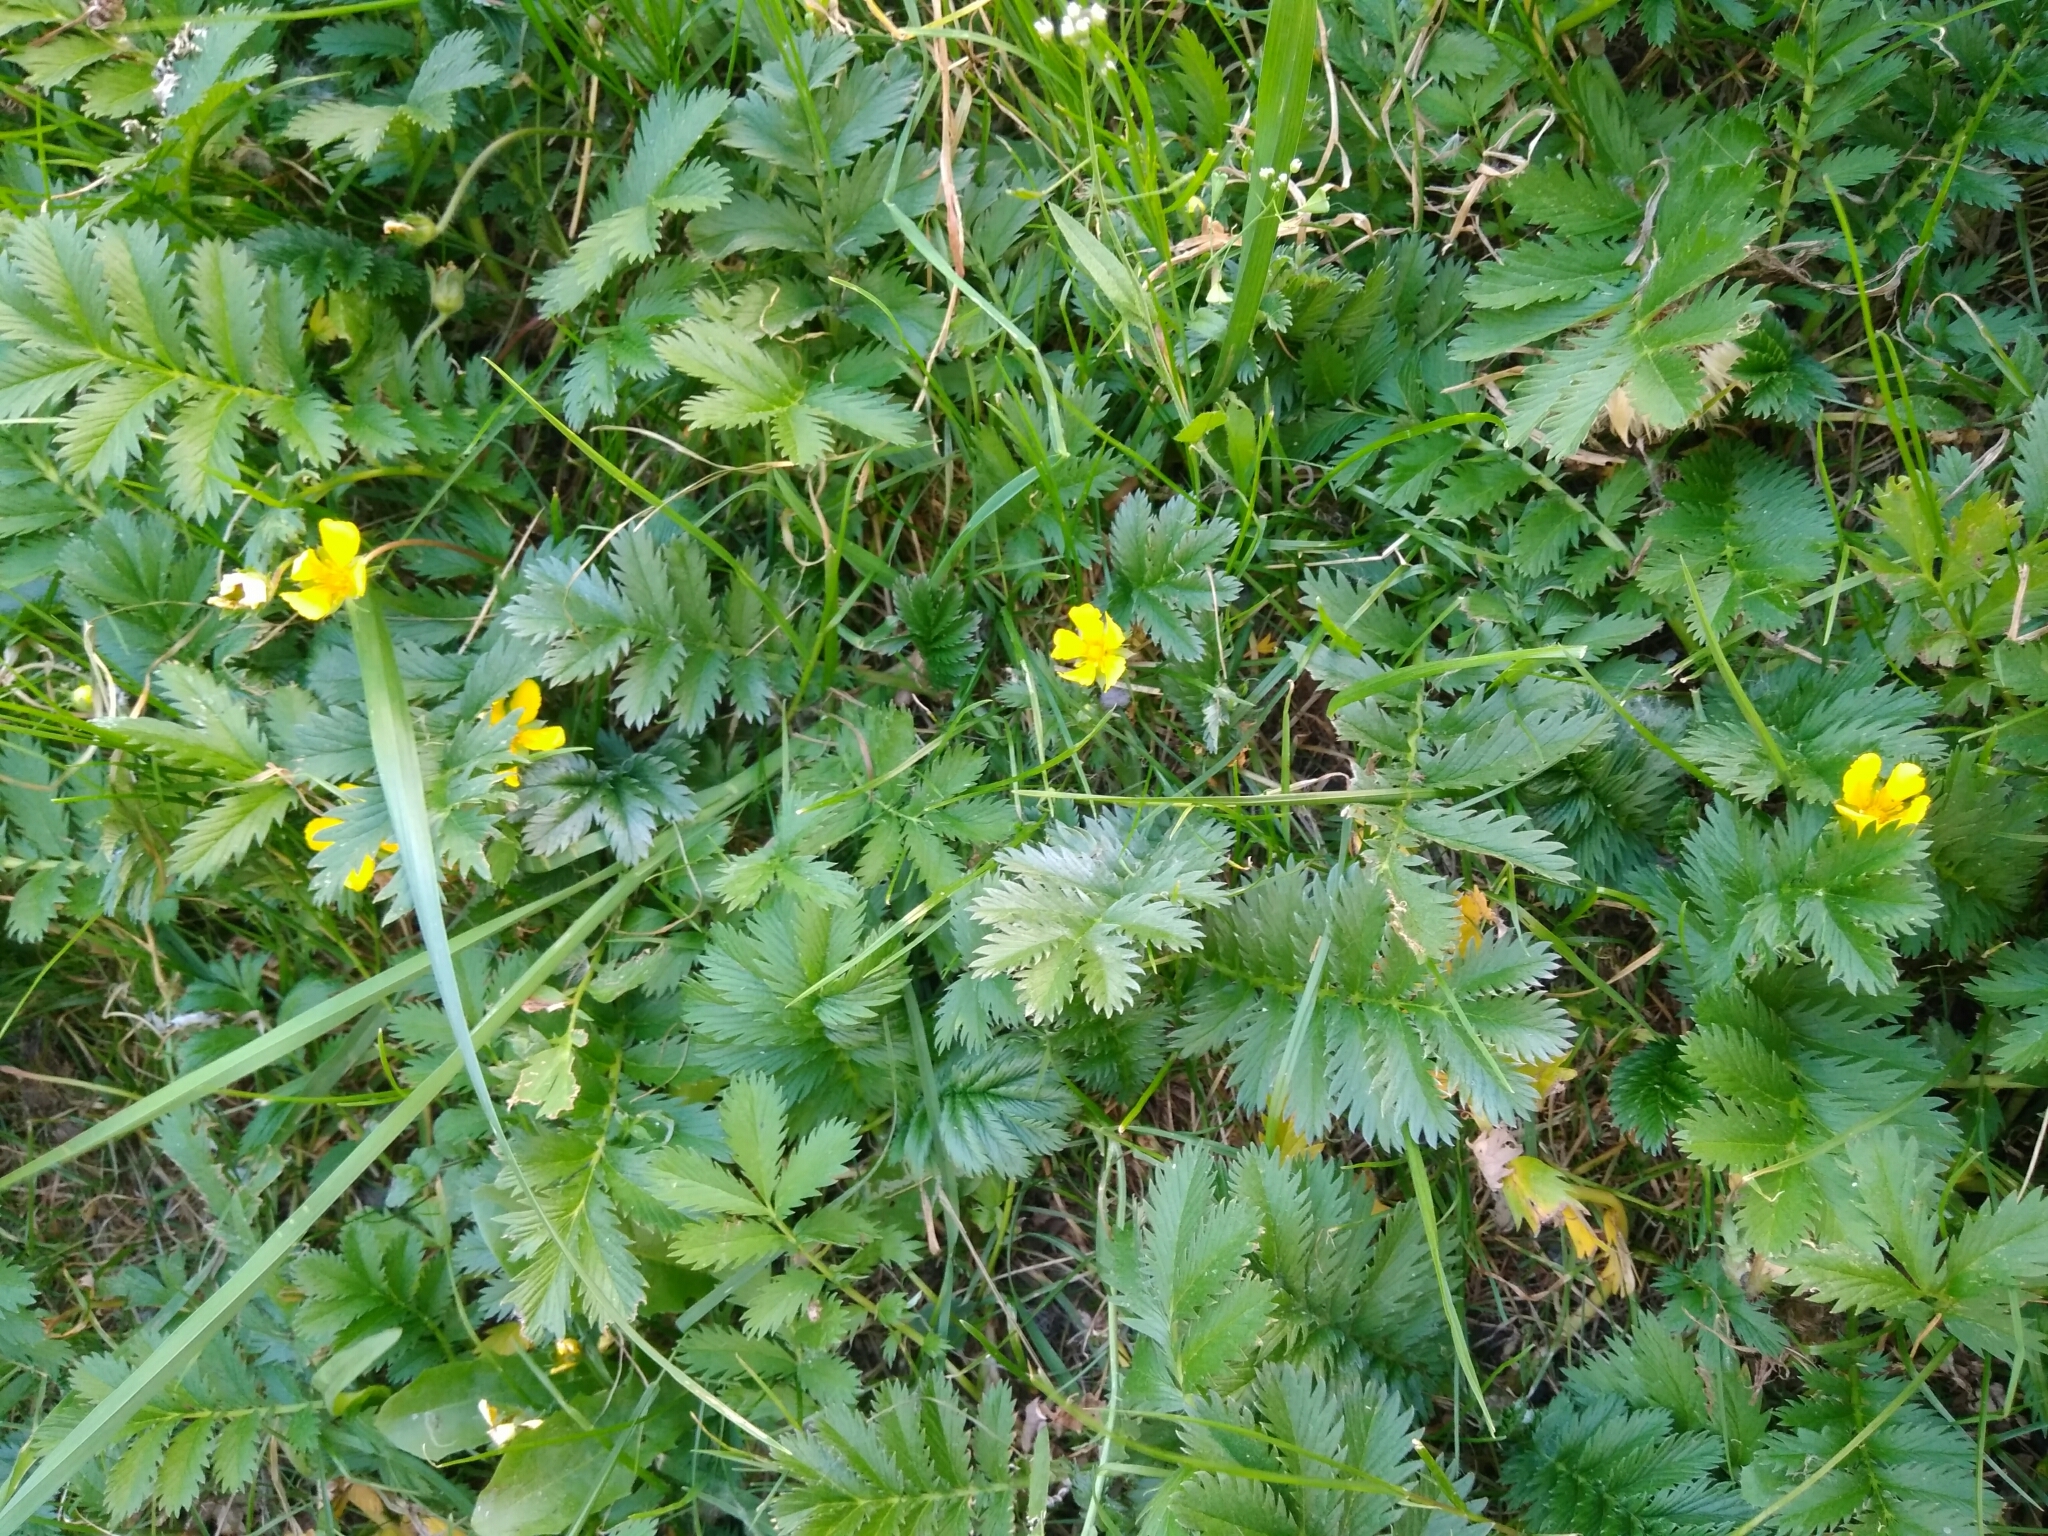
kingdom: Plantae
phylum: Tracheophyta
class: Magnoliopsida
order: Rosales
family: Rosaceae
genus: Argentina
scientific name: Argentina anserina
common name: Common silverweed
